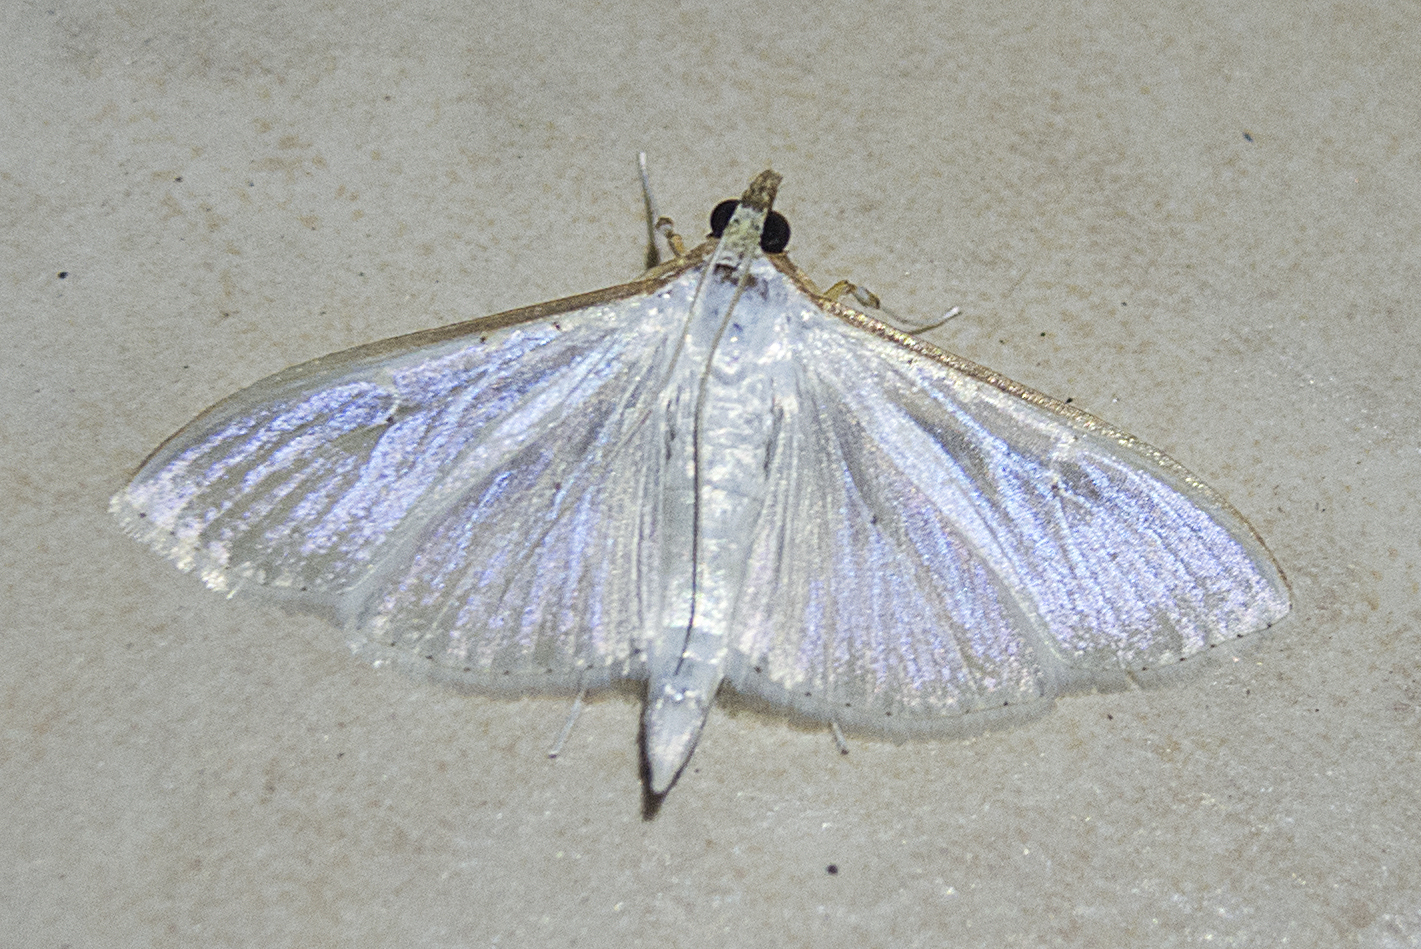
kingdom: Animalia
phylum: Arthropoda
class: Insecta
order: Lepidoptera
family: Crambidae
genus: Palpita
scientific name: Palpita vitrealis
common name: Olive-tree pearl
